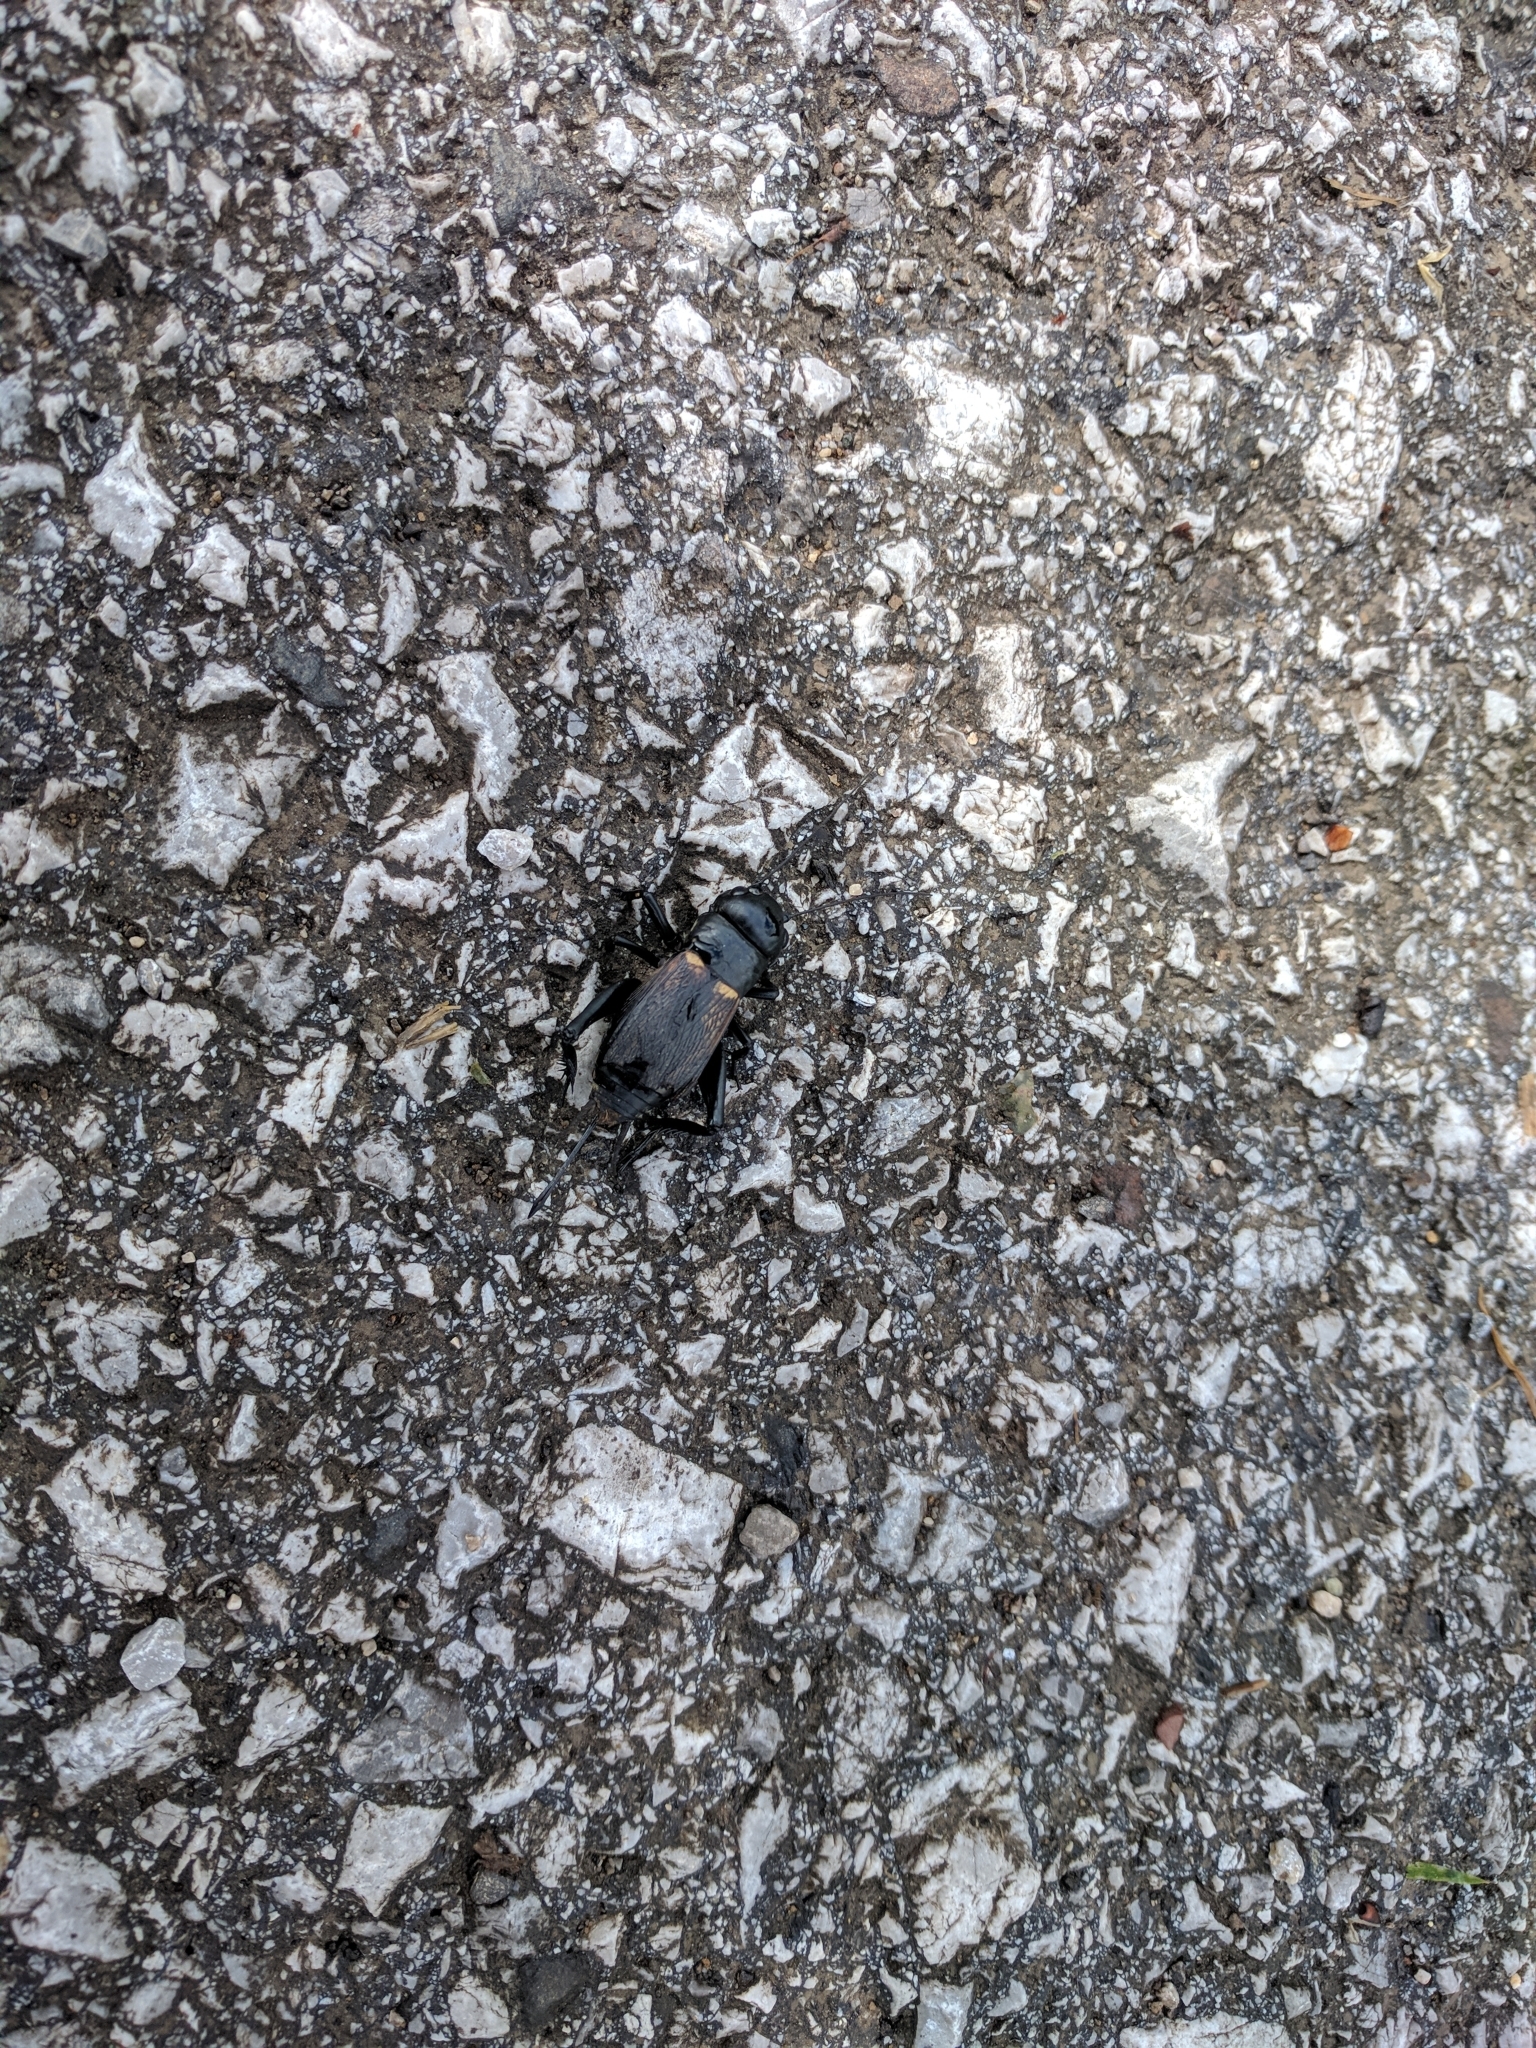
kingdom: Animalia
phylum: Arthropoda
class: Insecta
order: Orthoptera
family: Gryllidae
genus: Gryllus
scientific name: Gryllus campestris
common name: Field cricket
